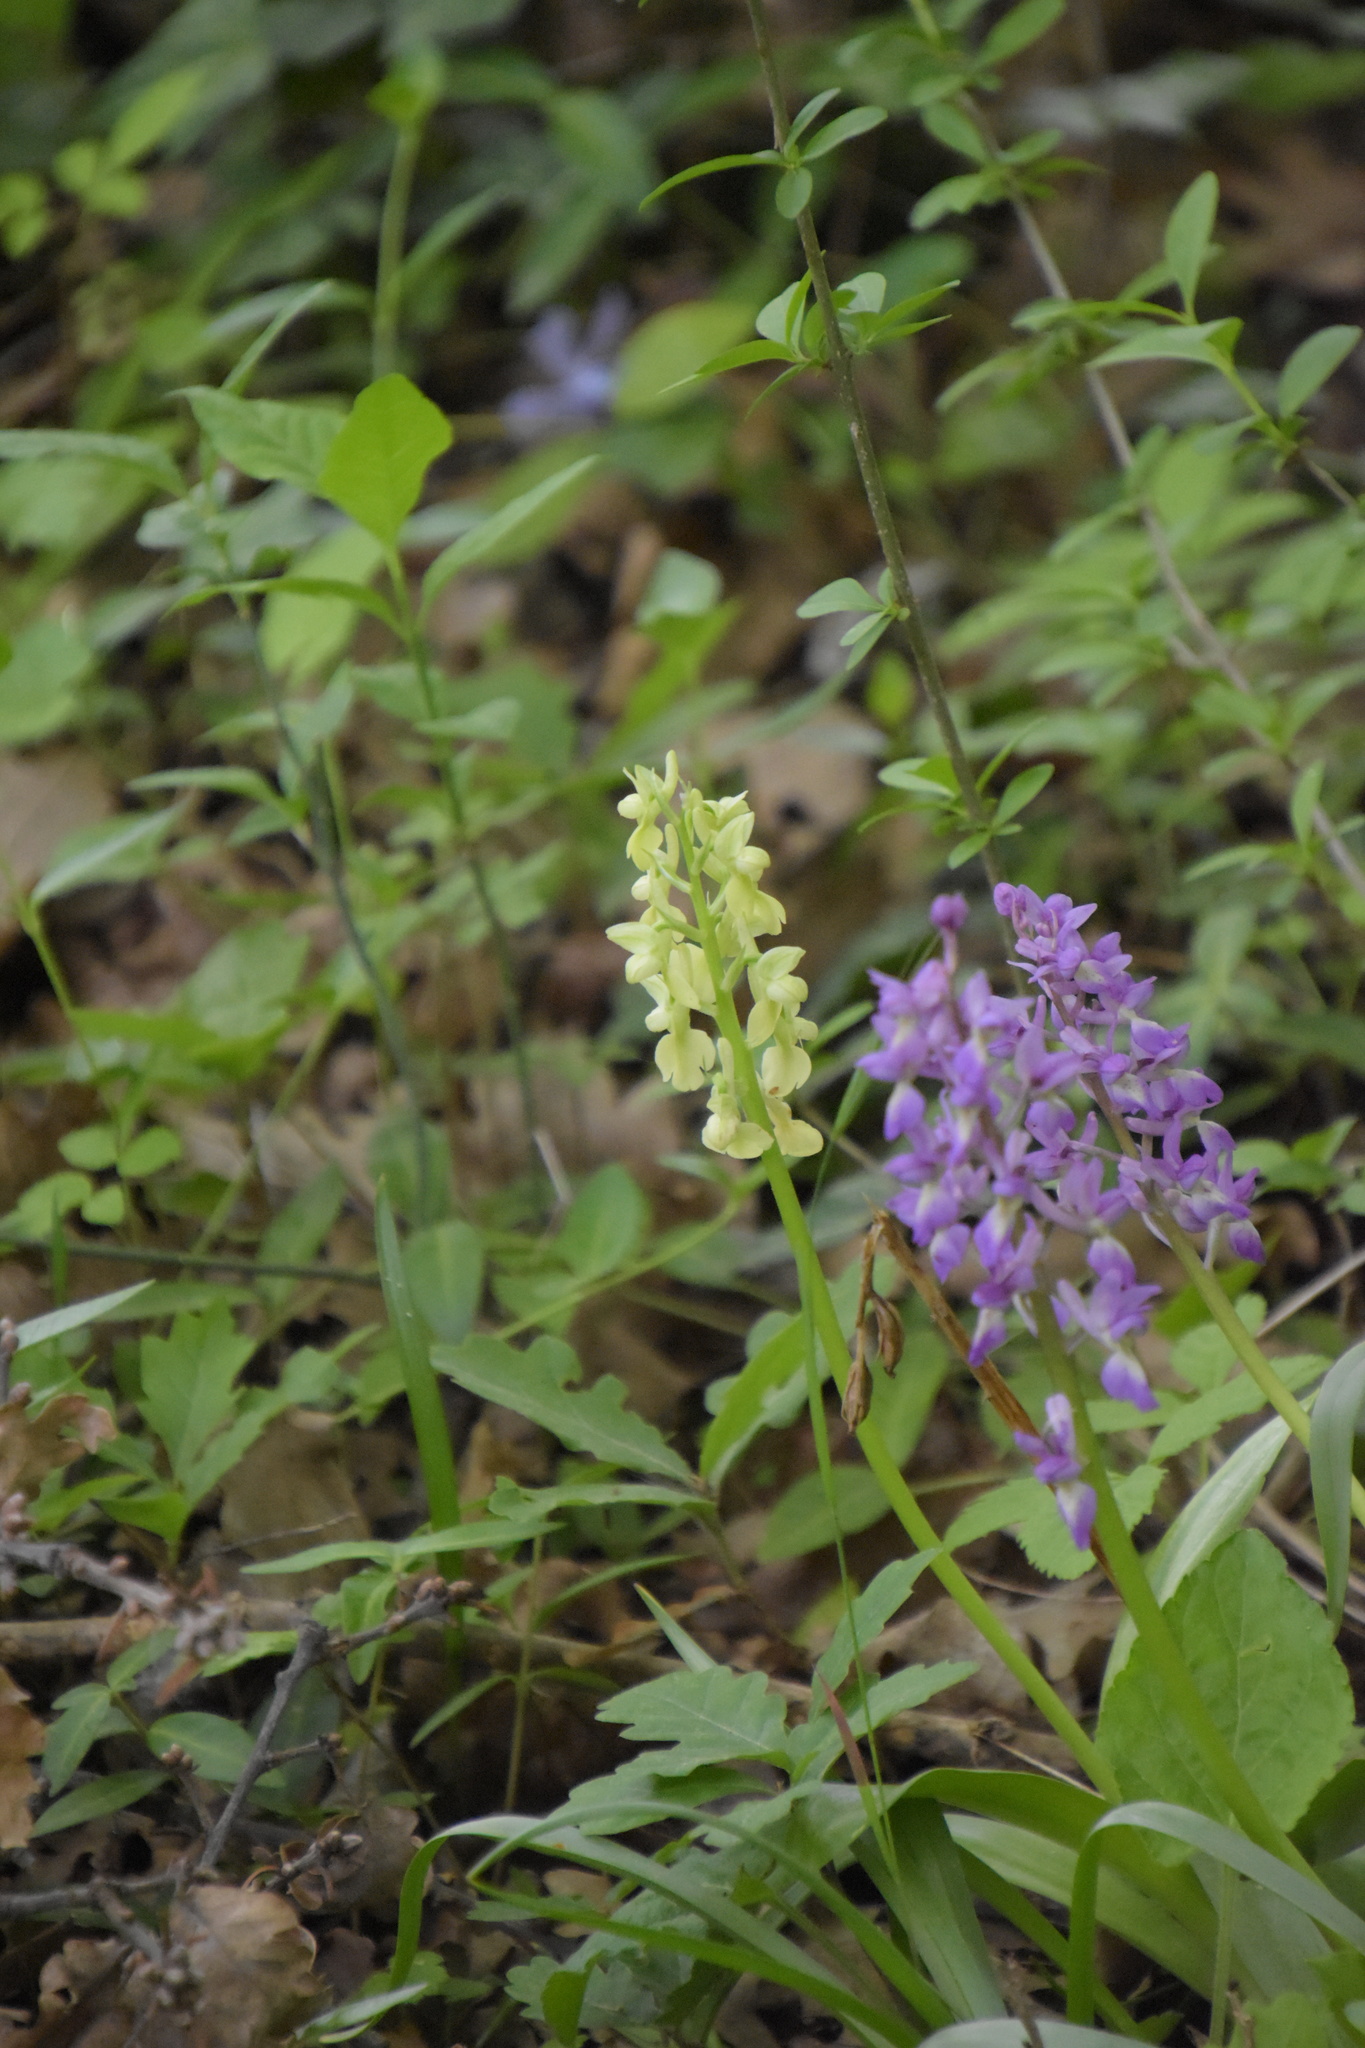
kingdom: Plantae
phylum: Tracheophyta
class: Liliopsida
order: Asparagales
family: Orchidaceae
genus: Orchis
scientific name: Orchis pallens
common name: Pale-flowered orchid
